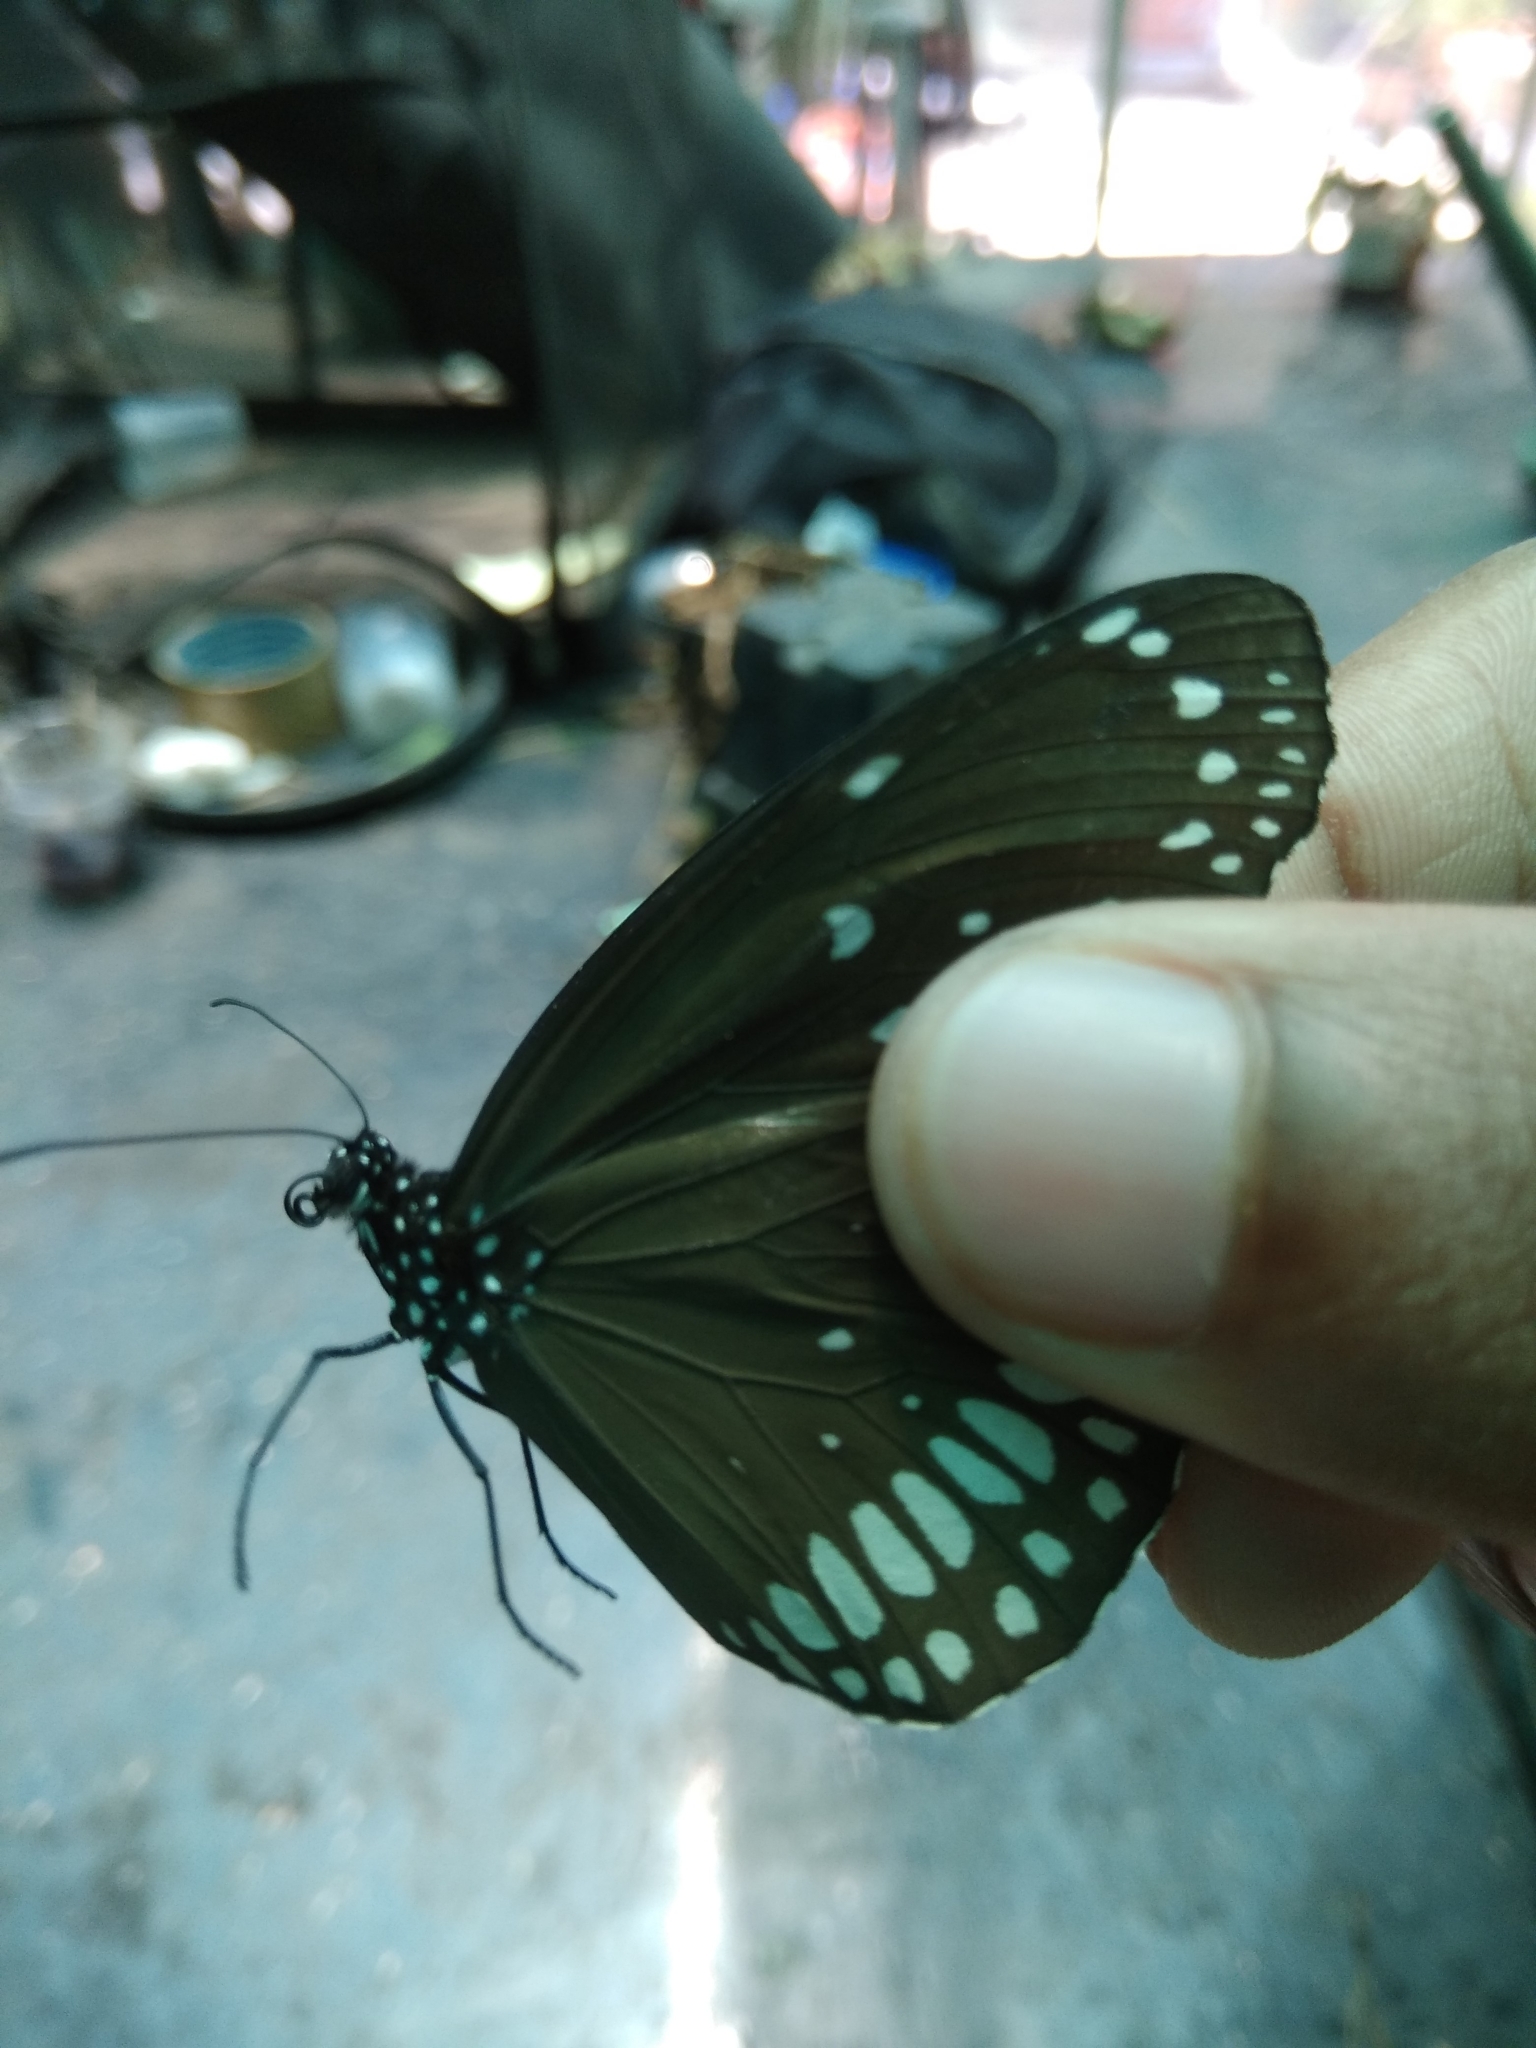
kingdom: Animalia
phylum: Arthropoda
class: Insecta
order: Lepidoptera
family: Nymphalidae
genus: Euploea
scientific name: Euploea core
